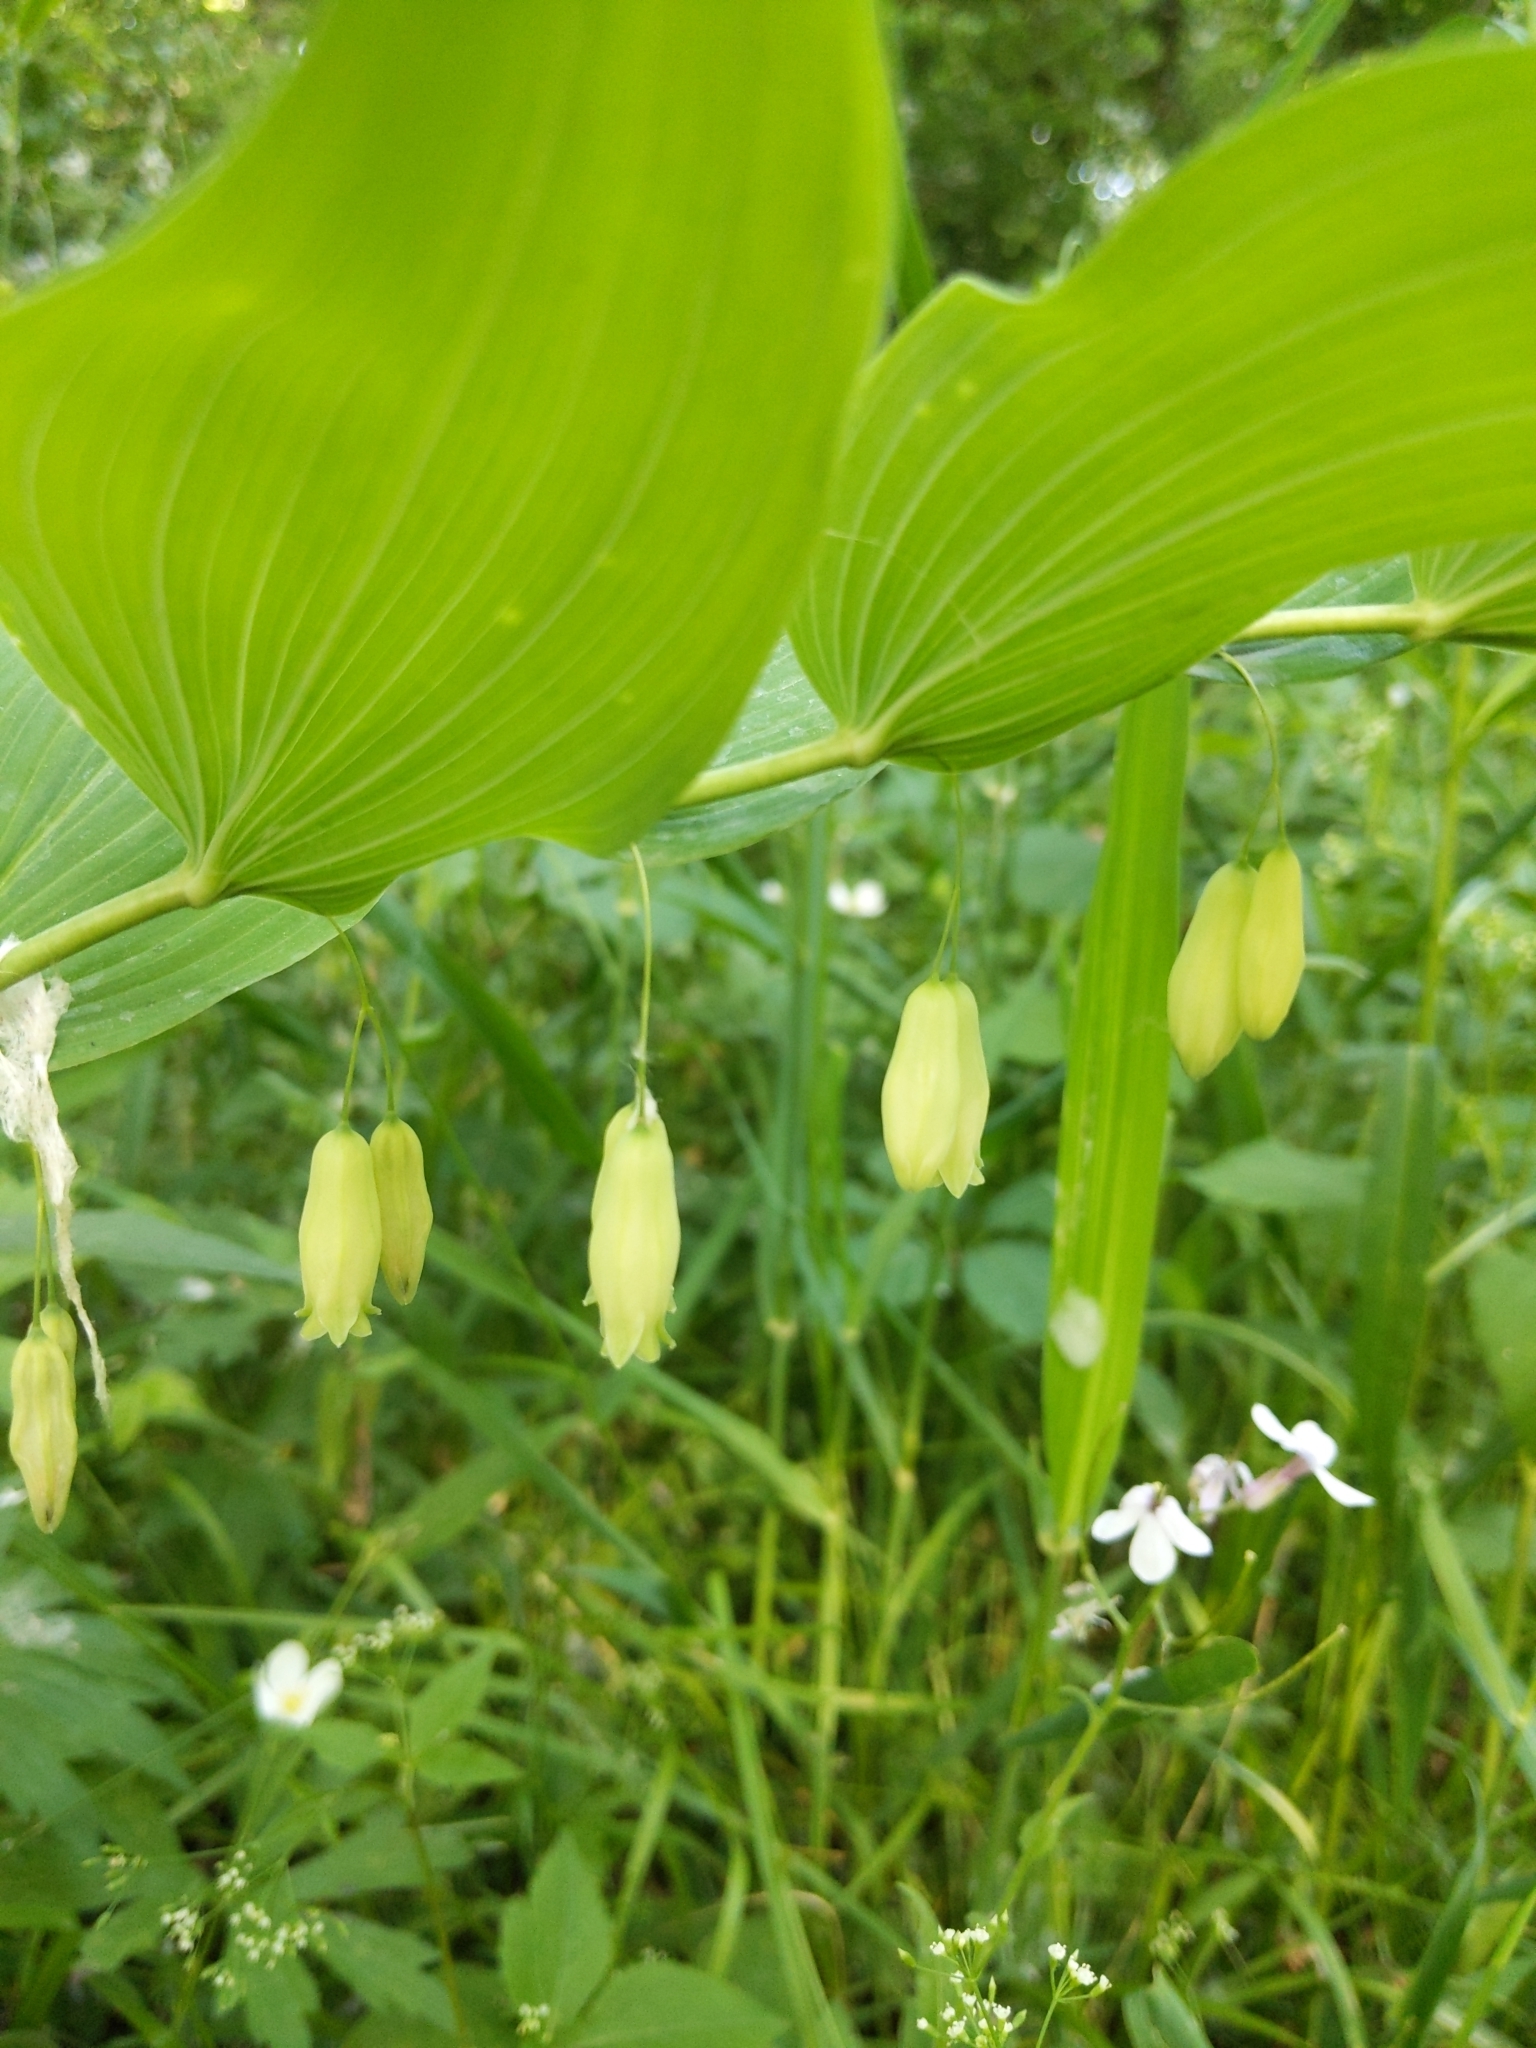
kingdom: Plantae
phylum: Tracheophyta
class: Liliopsida
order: Asparagales
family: Asparagaceae
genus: Polygonatum
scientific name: Polygonatum biflorum
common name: American solomon's-seal
